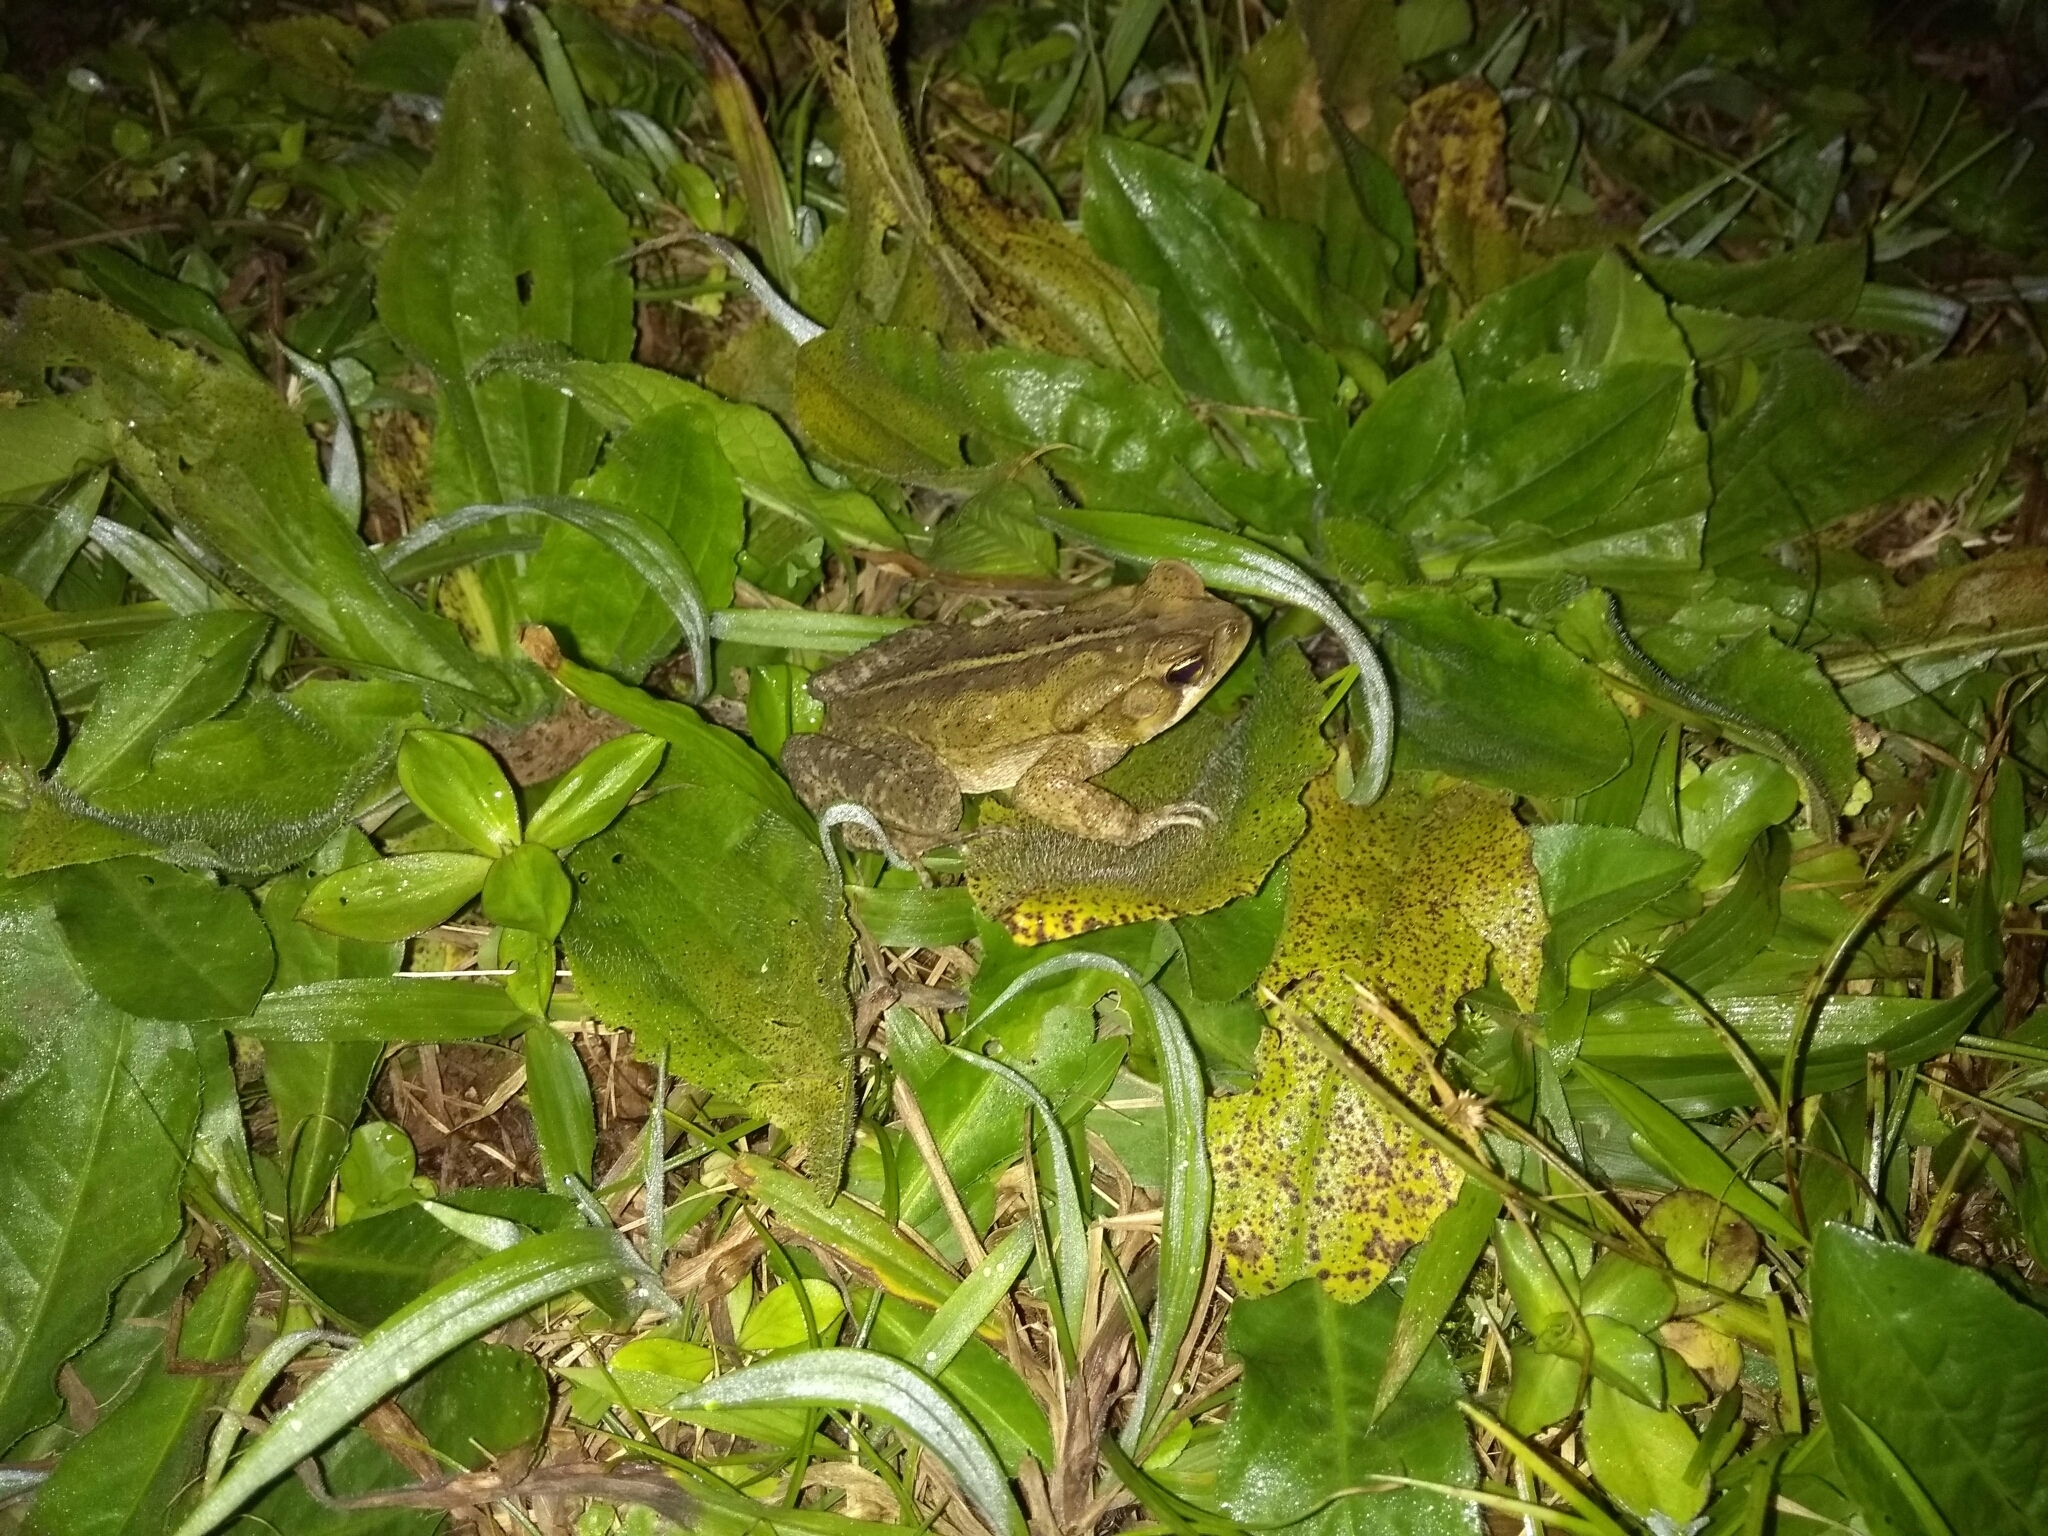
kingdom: Animalia
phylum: Chordata
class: Amphibia
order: Anura
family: Bufonidae
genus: Rhinella
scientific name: Rhinella ornata
